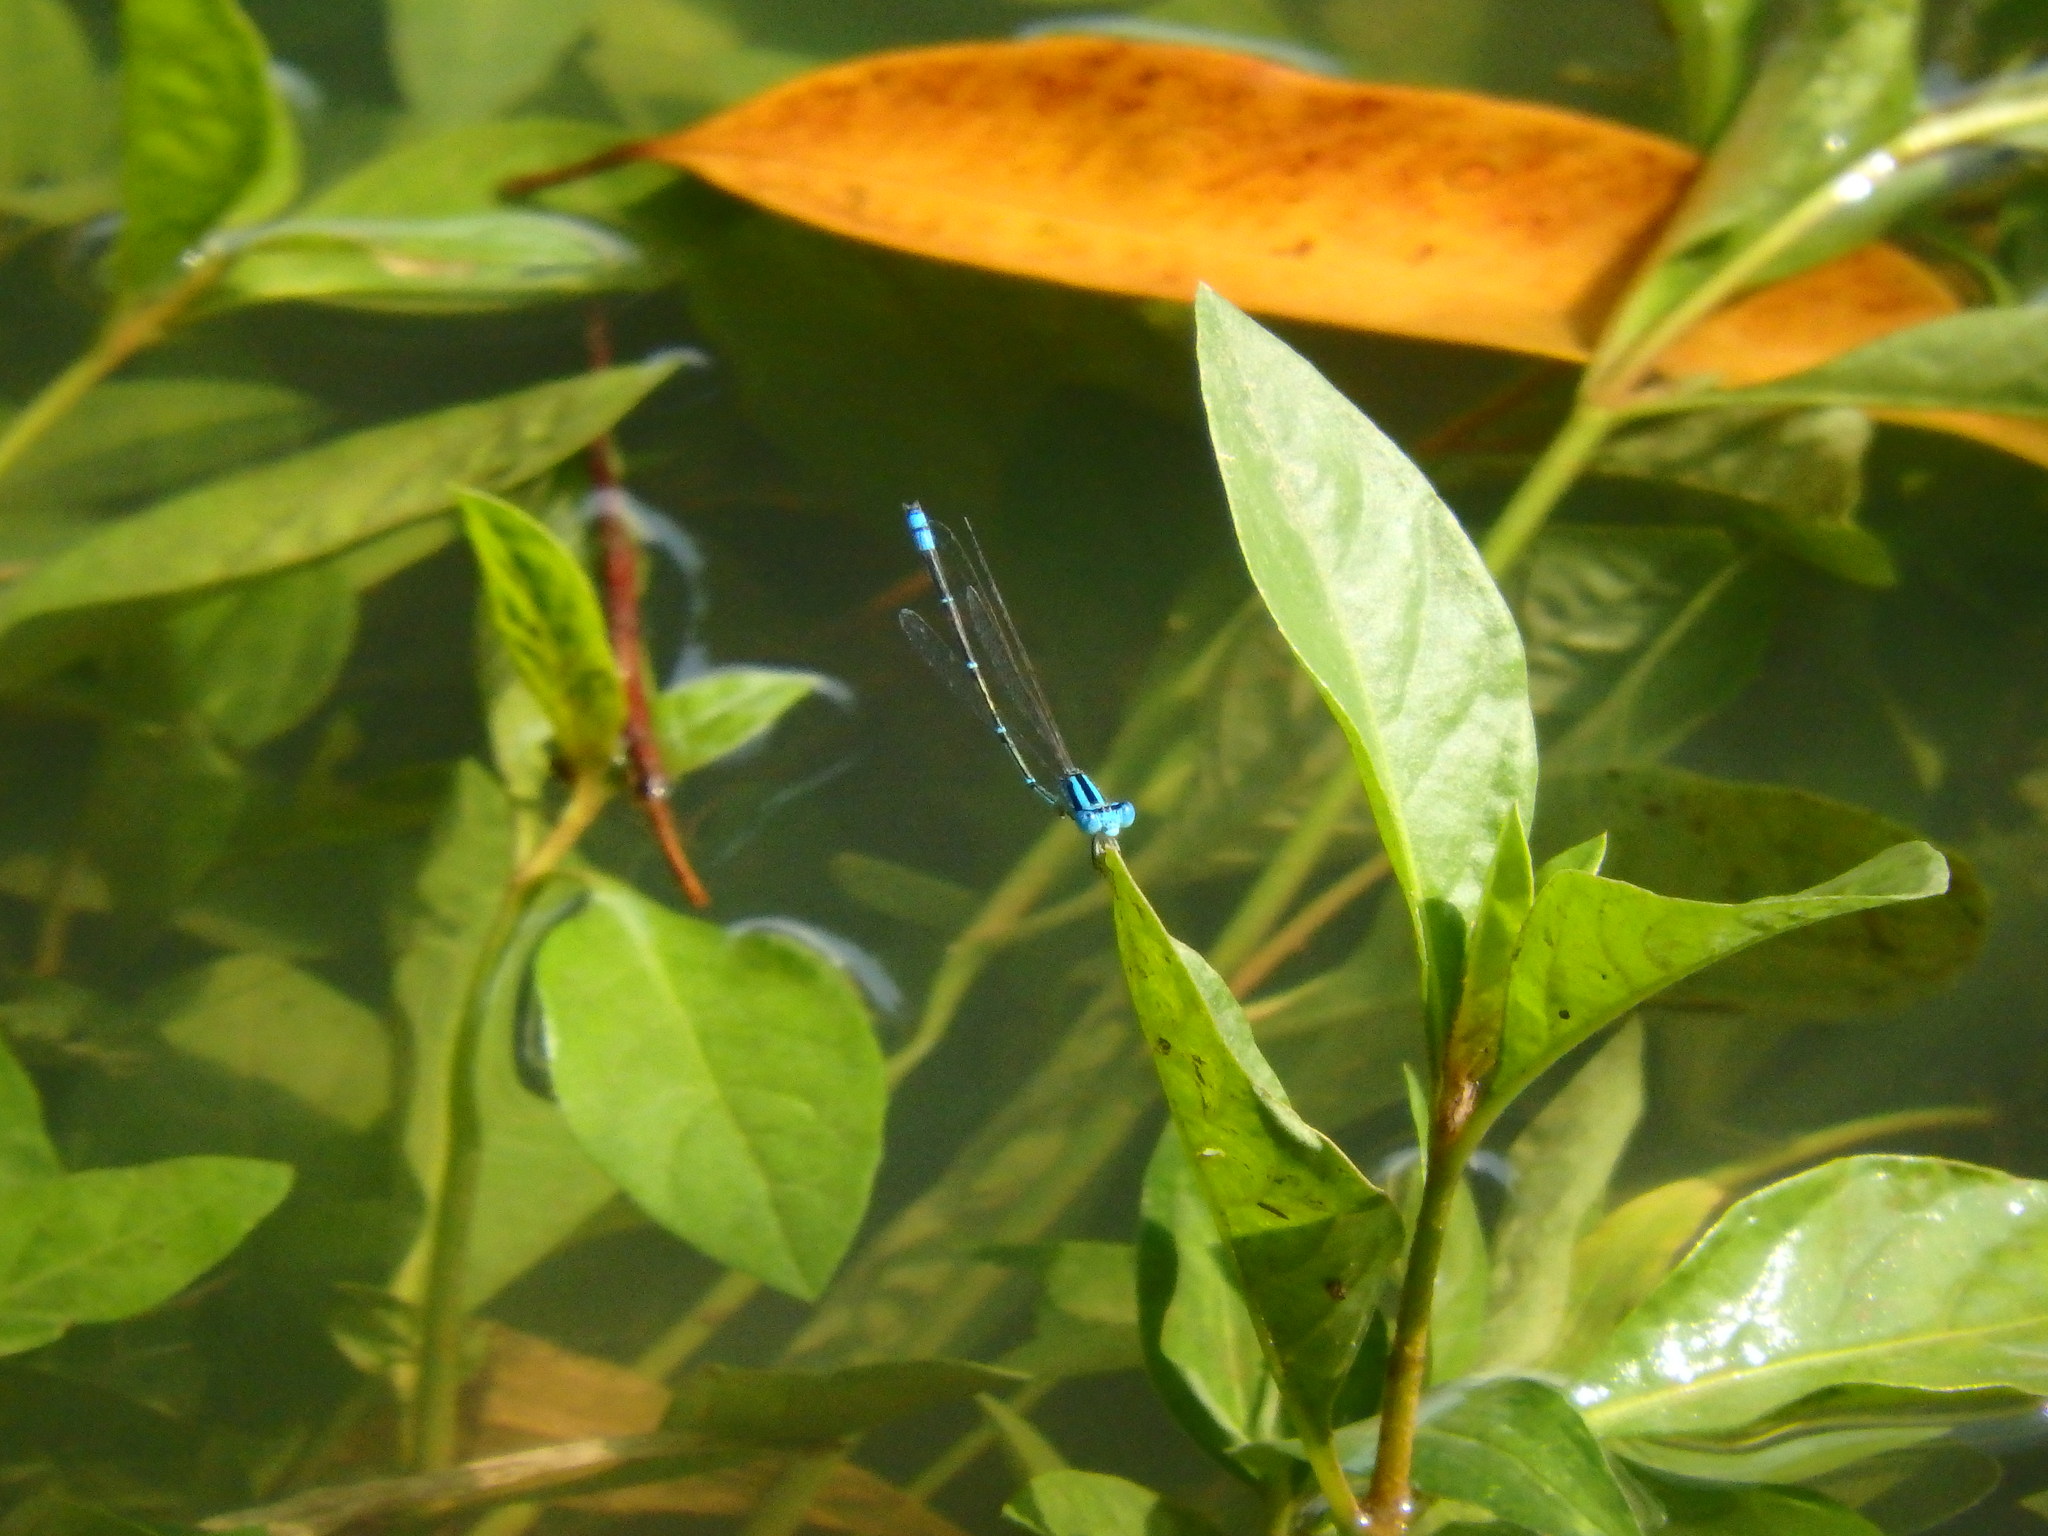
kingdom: Animalia
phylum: Arthropoda
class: Insecta
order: Odonata
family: Coenagrionidae
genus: Pseudagrion
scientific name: Pseudagrion microcephalum
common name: Blue riverdamsel
